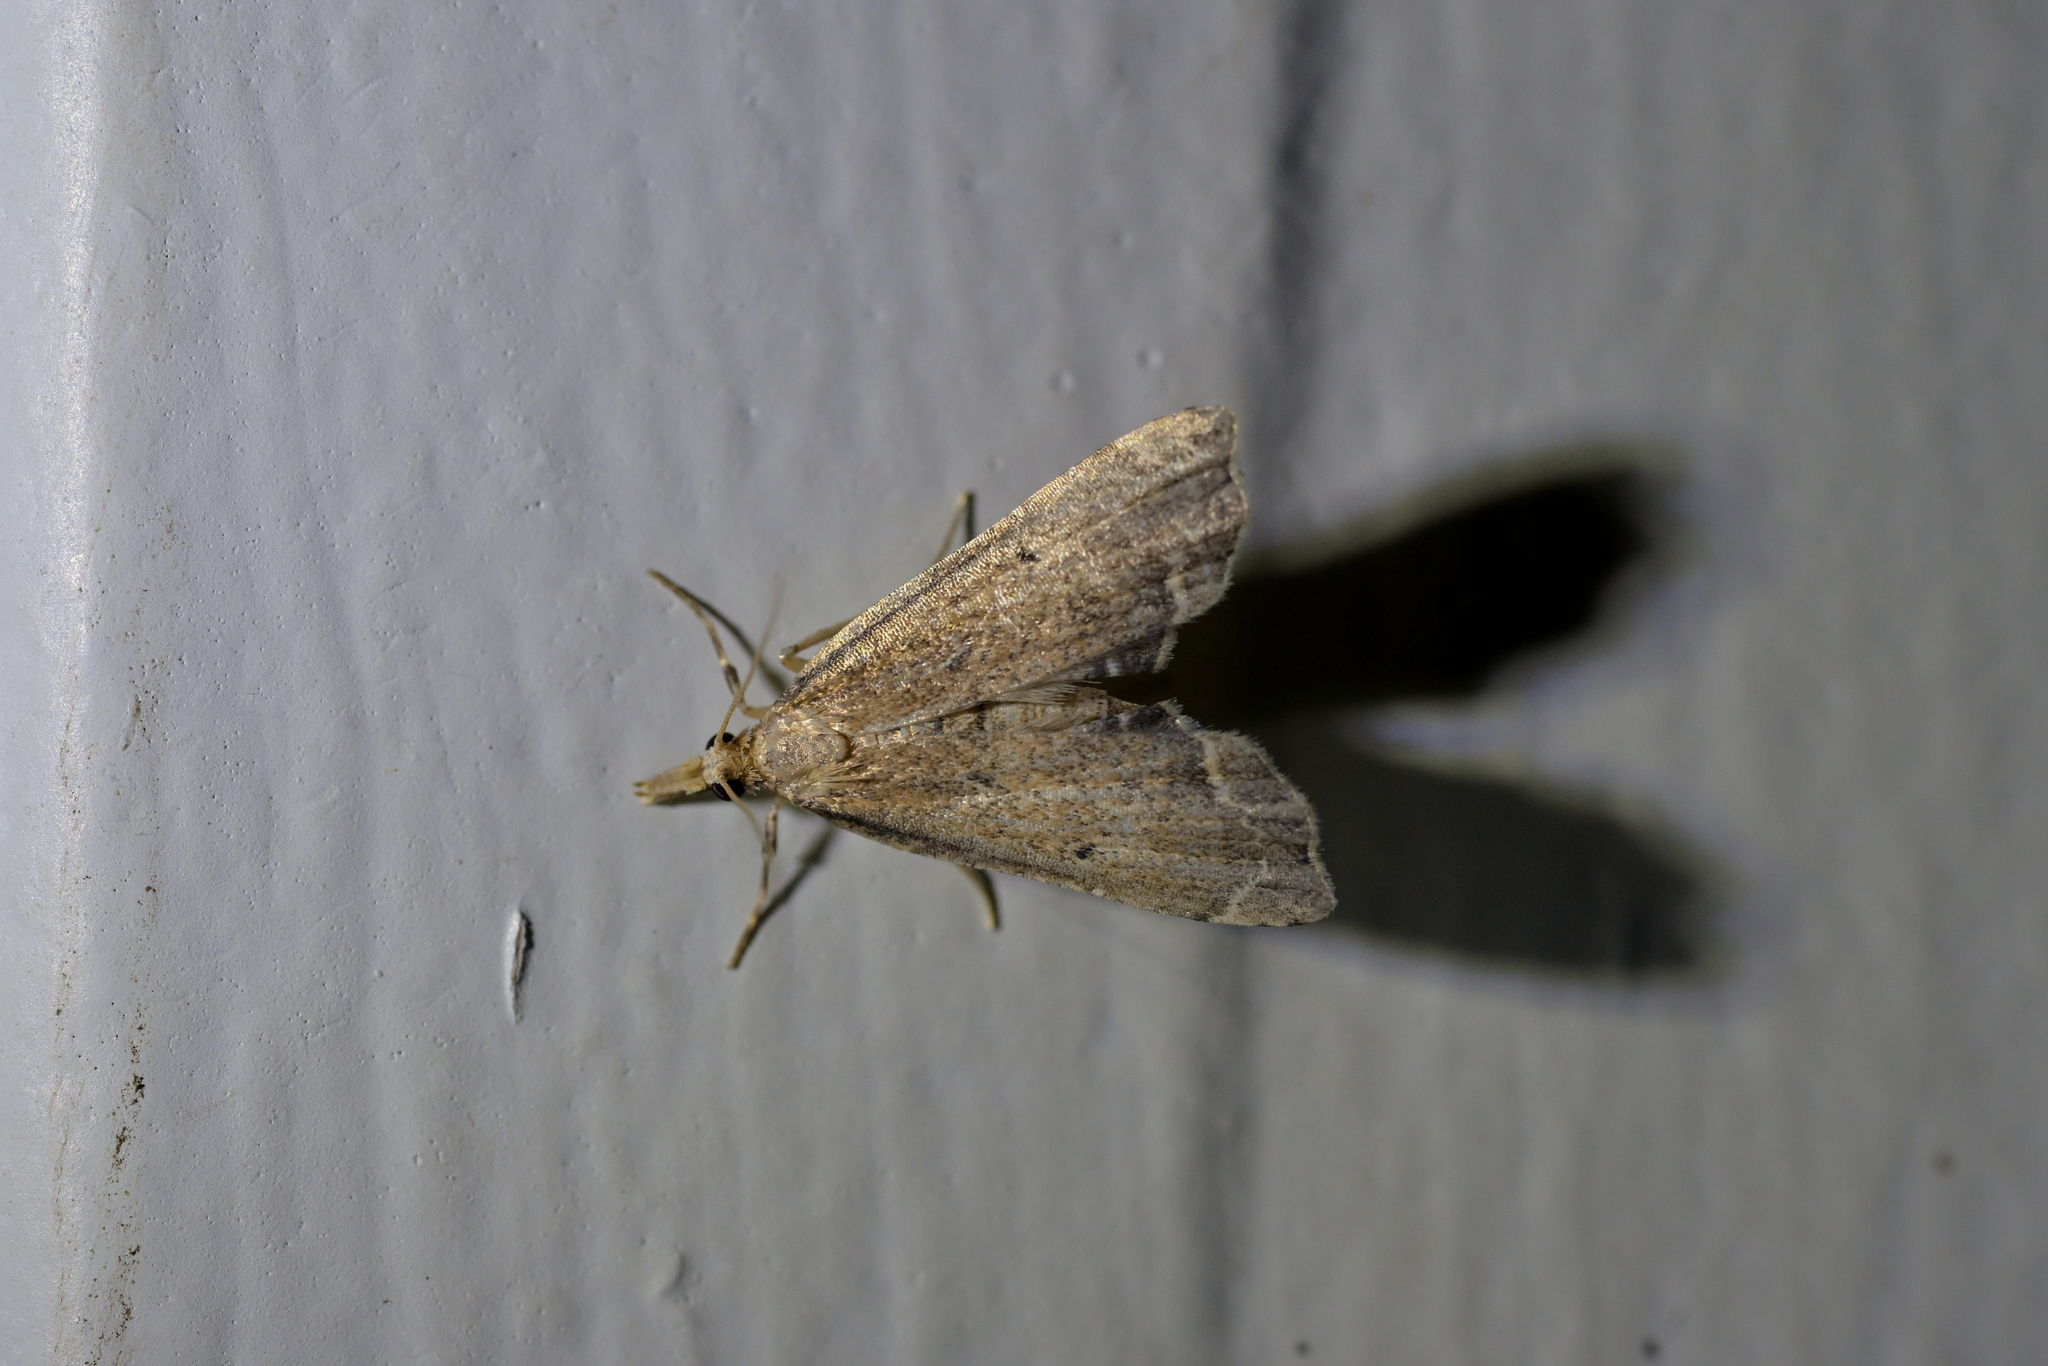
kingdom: Animalia
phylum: Arthropoda
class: Insecta
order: Lepidoptera
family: Crambidae
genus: Diplopseustis
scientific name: Diplopseustis perieresalis
